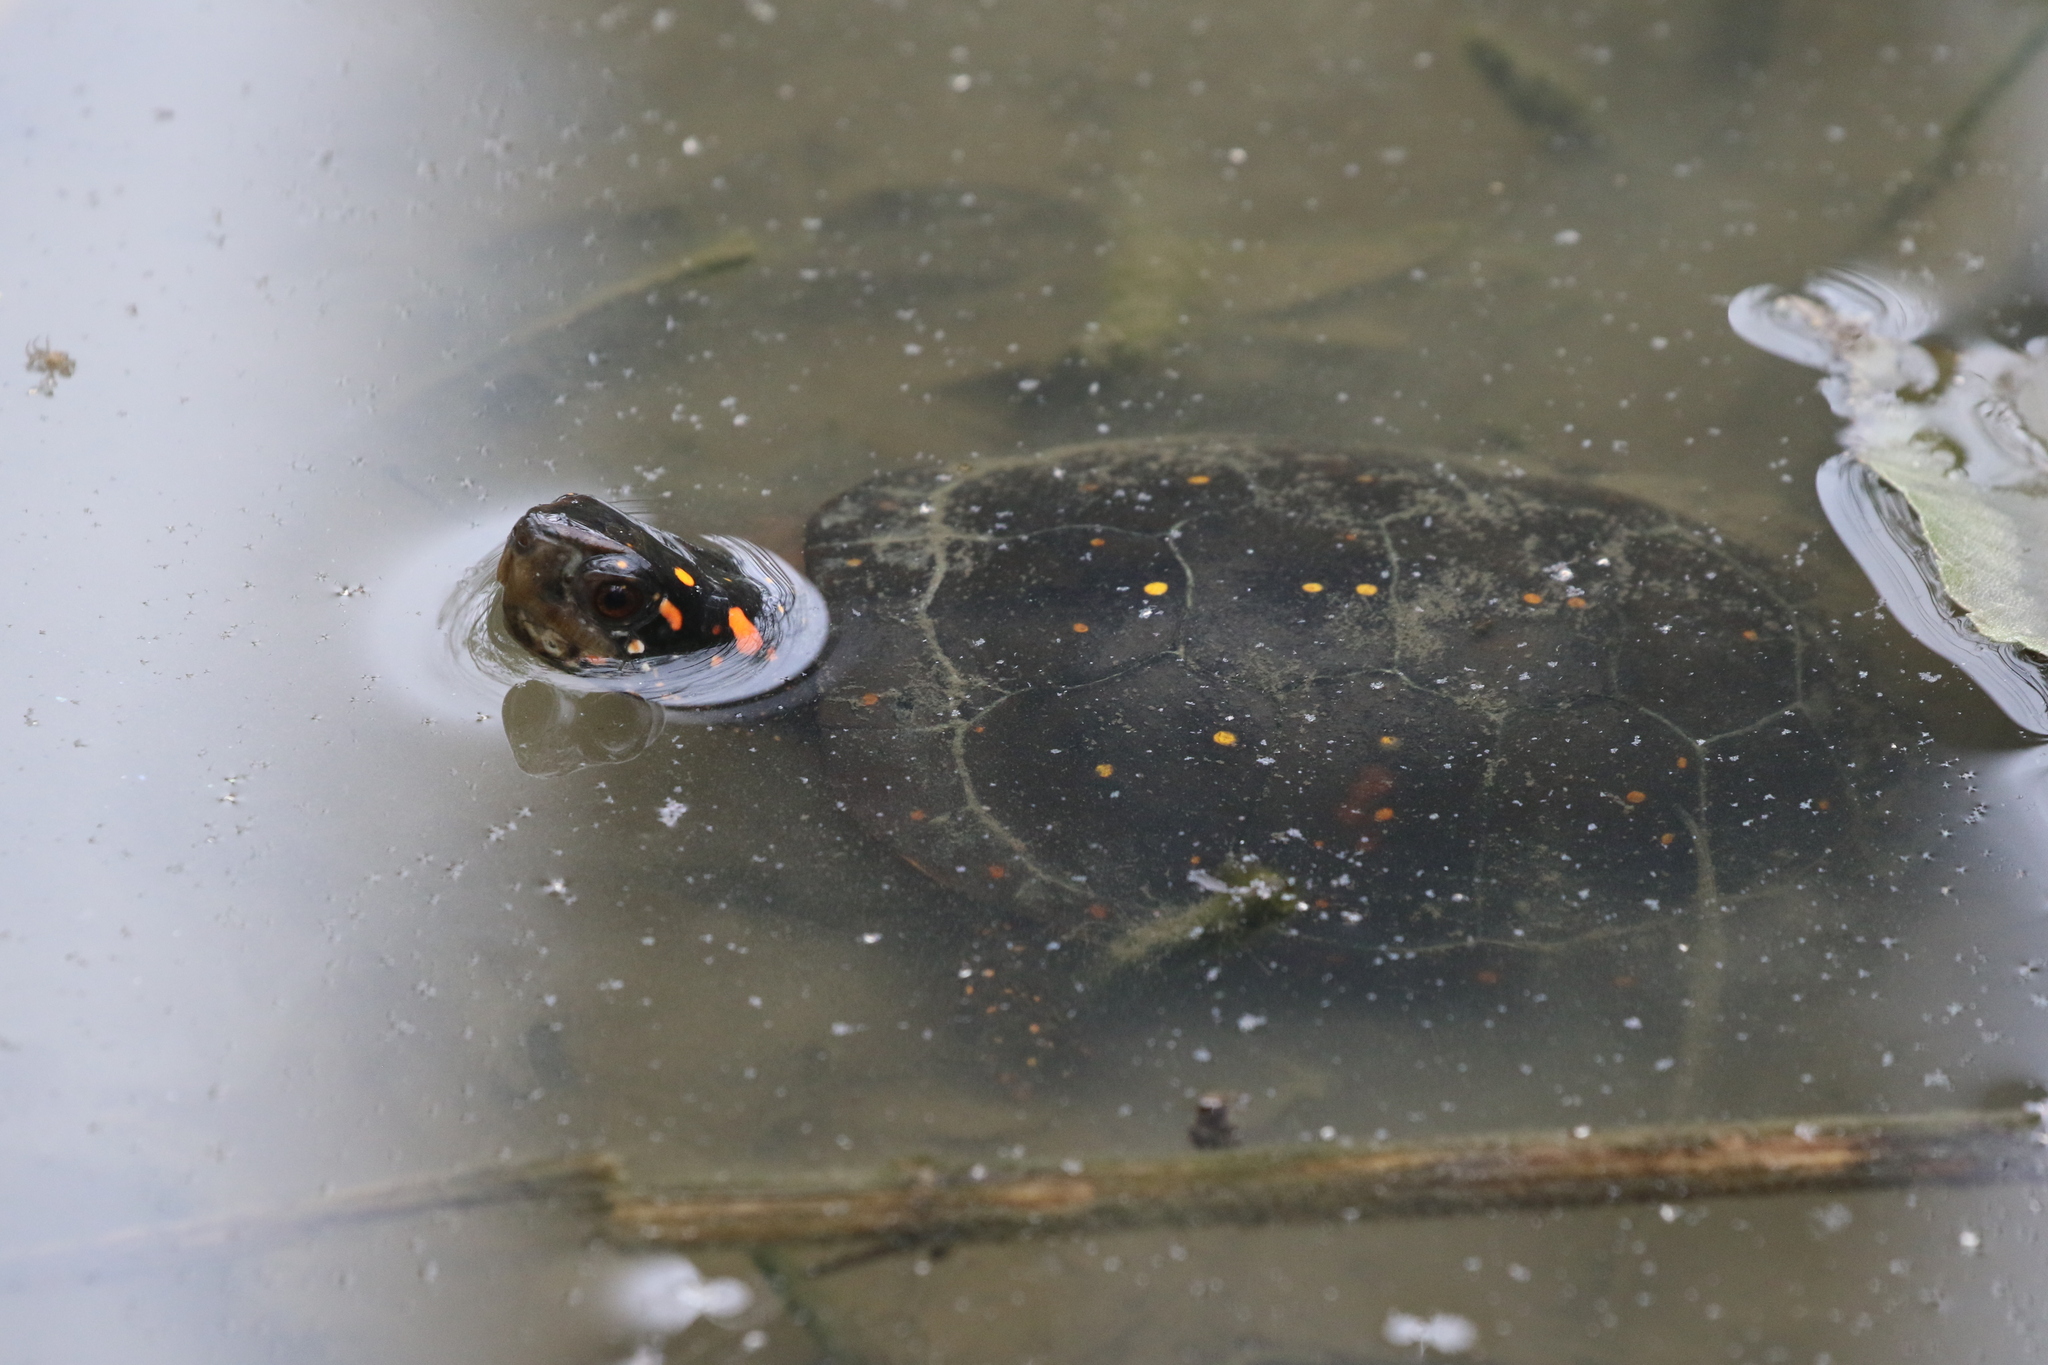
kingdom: Animalia
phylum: Chordata
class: Testudines
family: Emydidae
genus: Clemmys
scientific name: Clemmys guttata
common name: Spotted turtle
